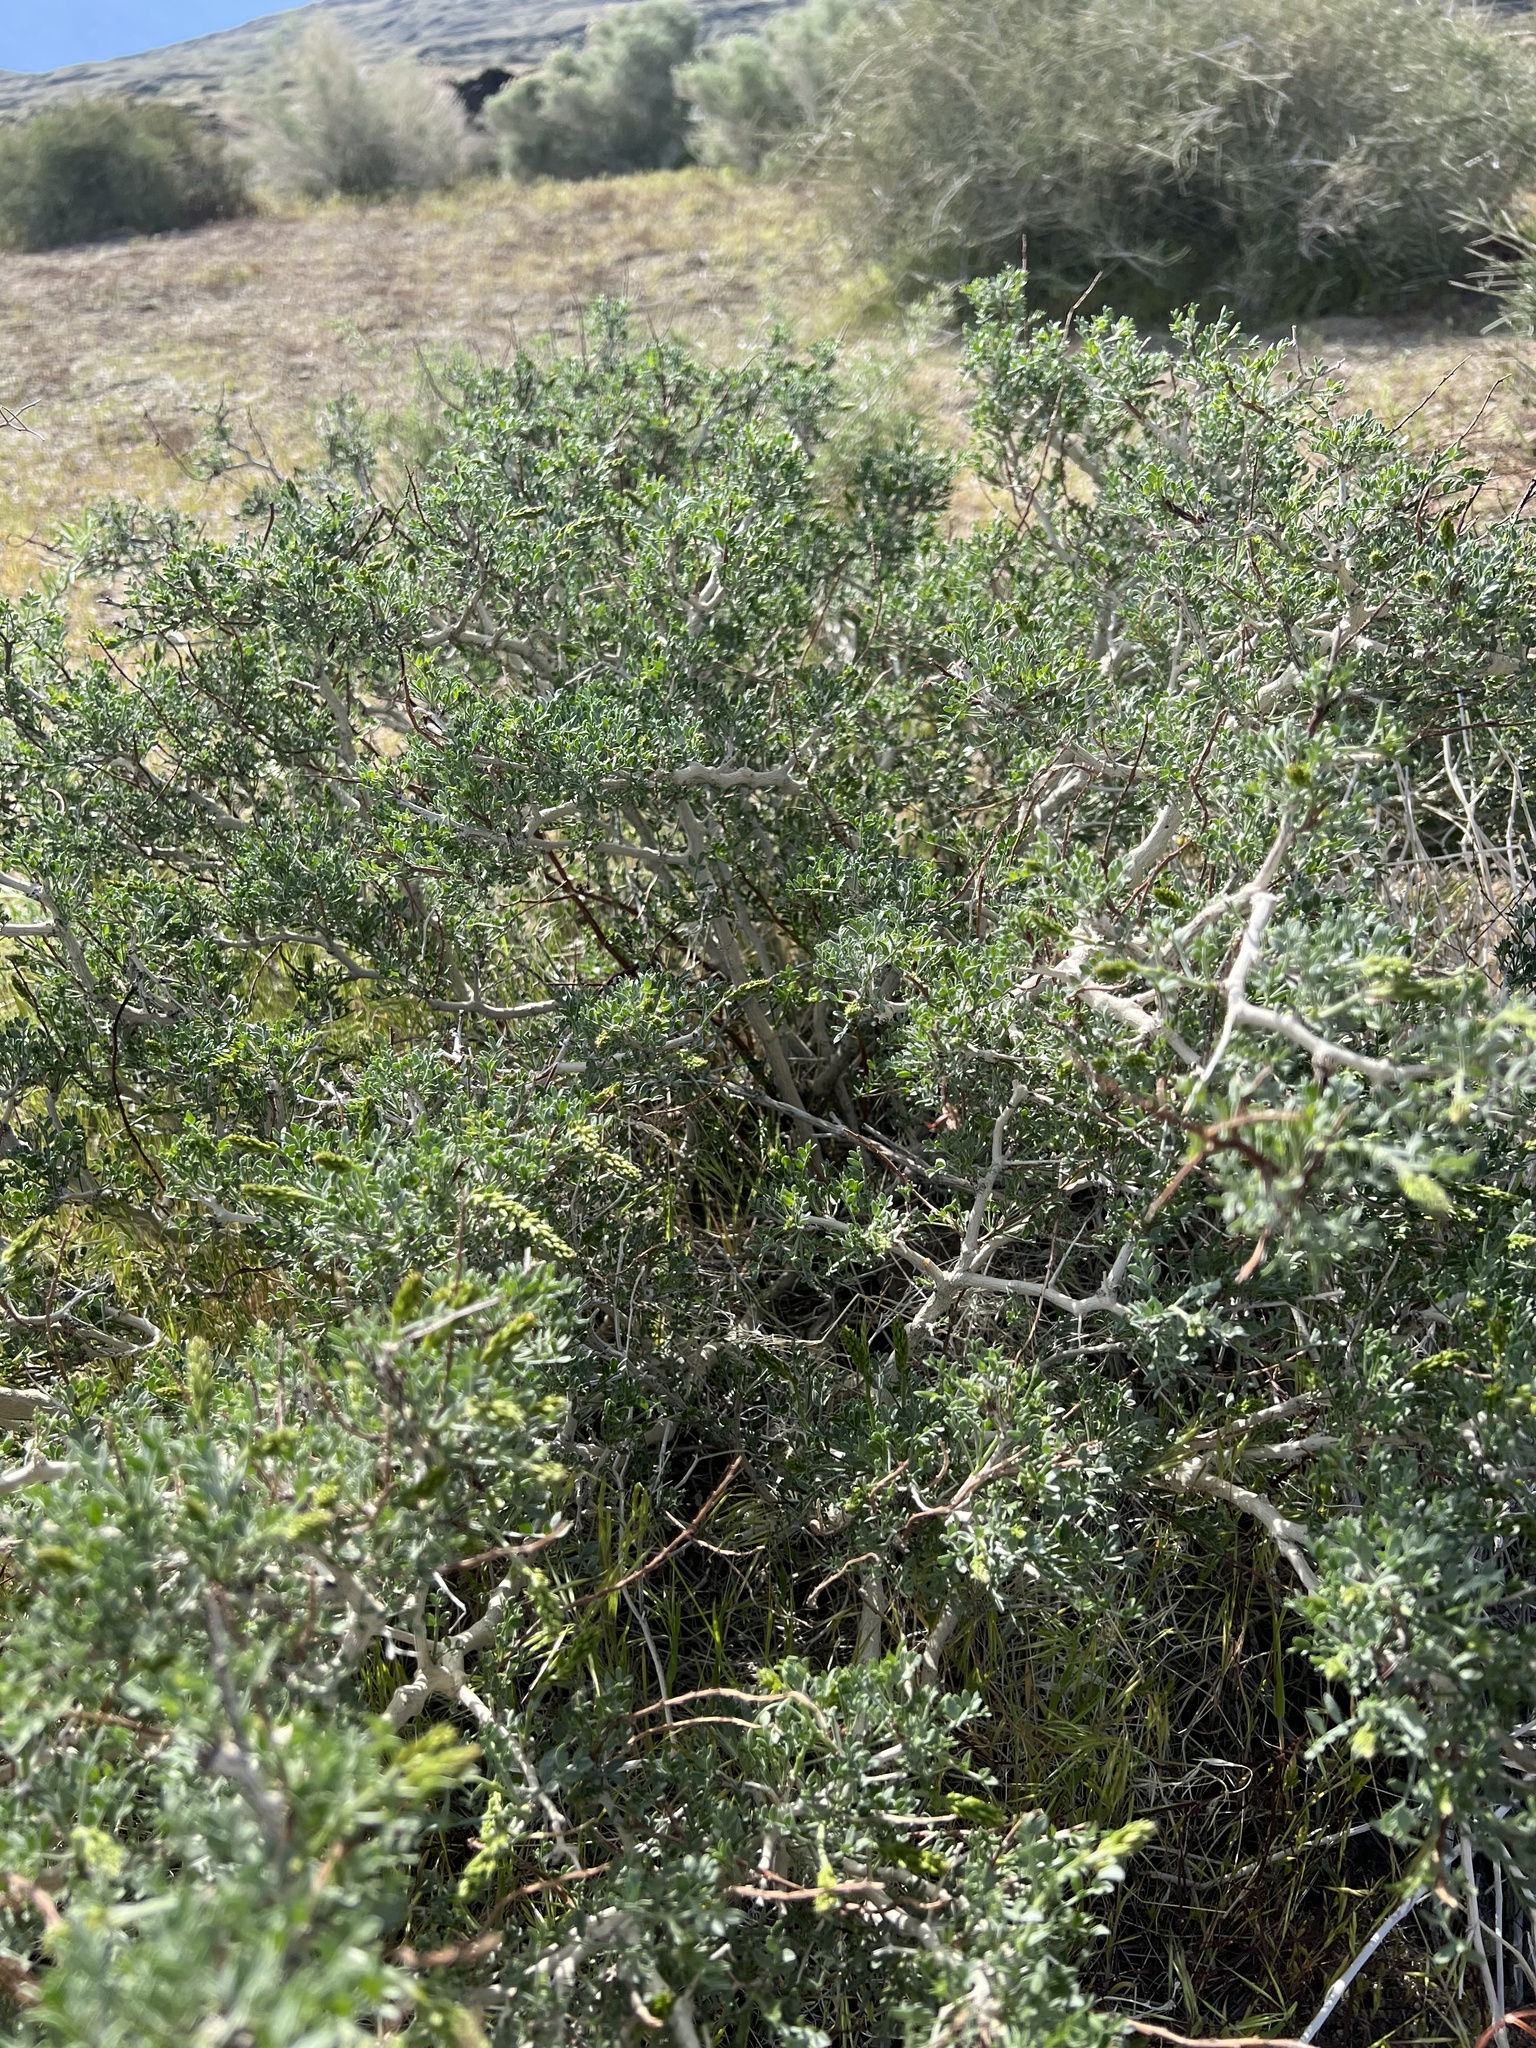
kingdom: Plantae
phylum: Tracheophyta
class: Magnoliopsida
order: Fabales
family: Fabaceae
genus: Psorothamnus
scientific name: Psorothamnus arborescens
